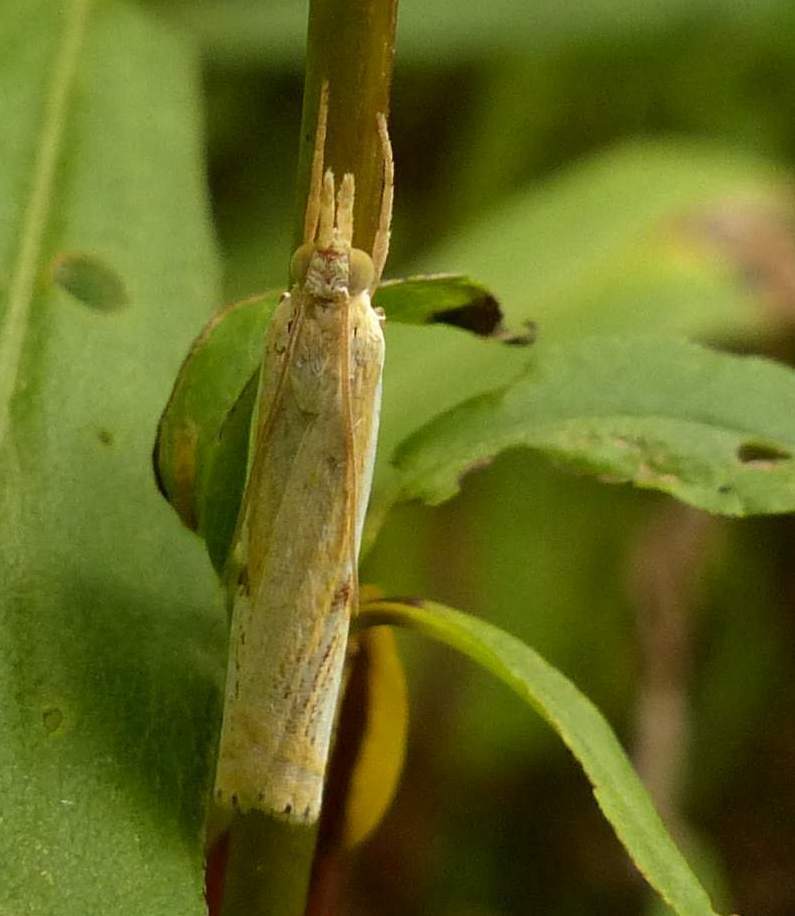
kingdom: Animalia
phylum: Arthropoda
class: Insecta
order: Lepidoptera
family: Crambidae
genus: Crambus
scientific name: Crambus
